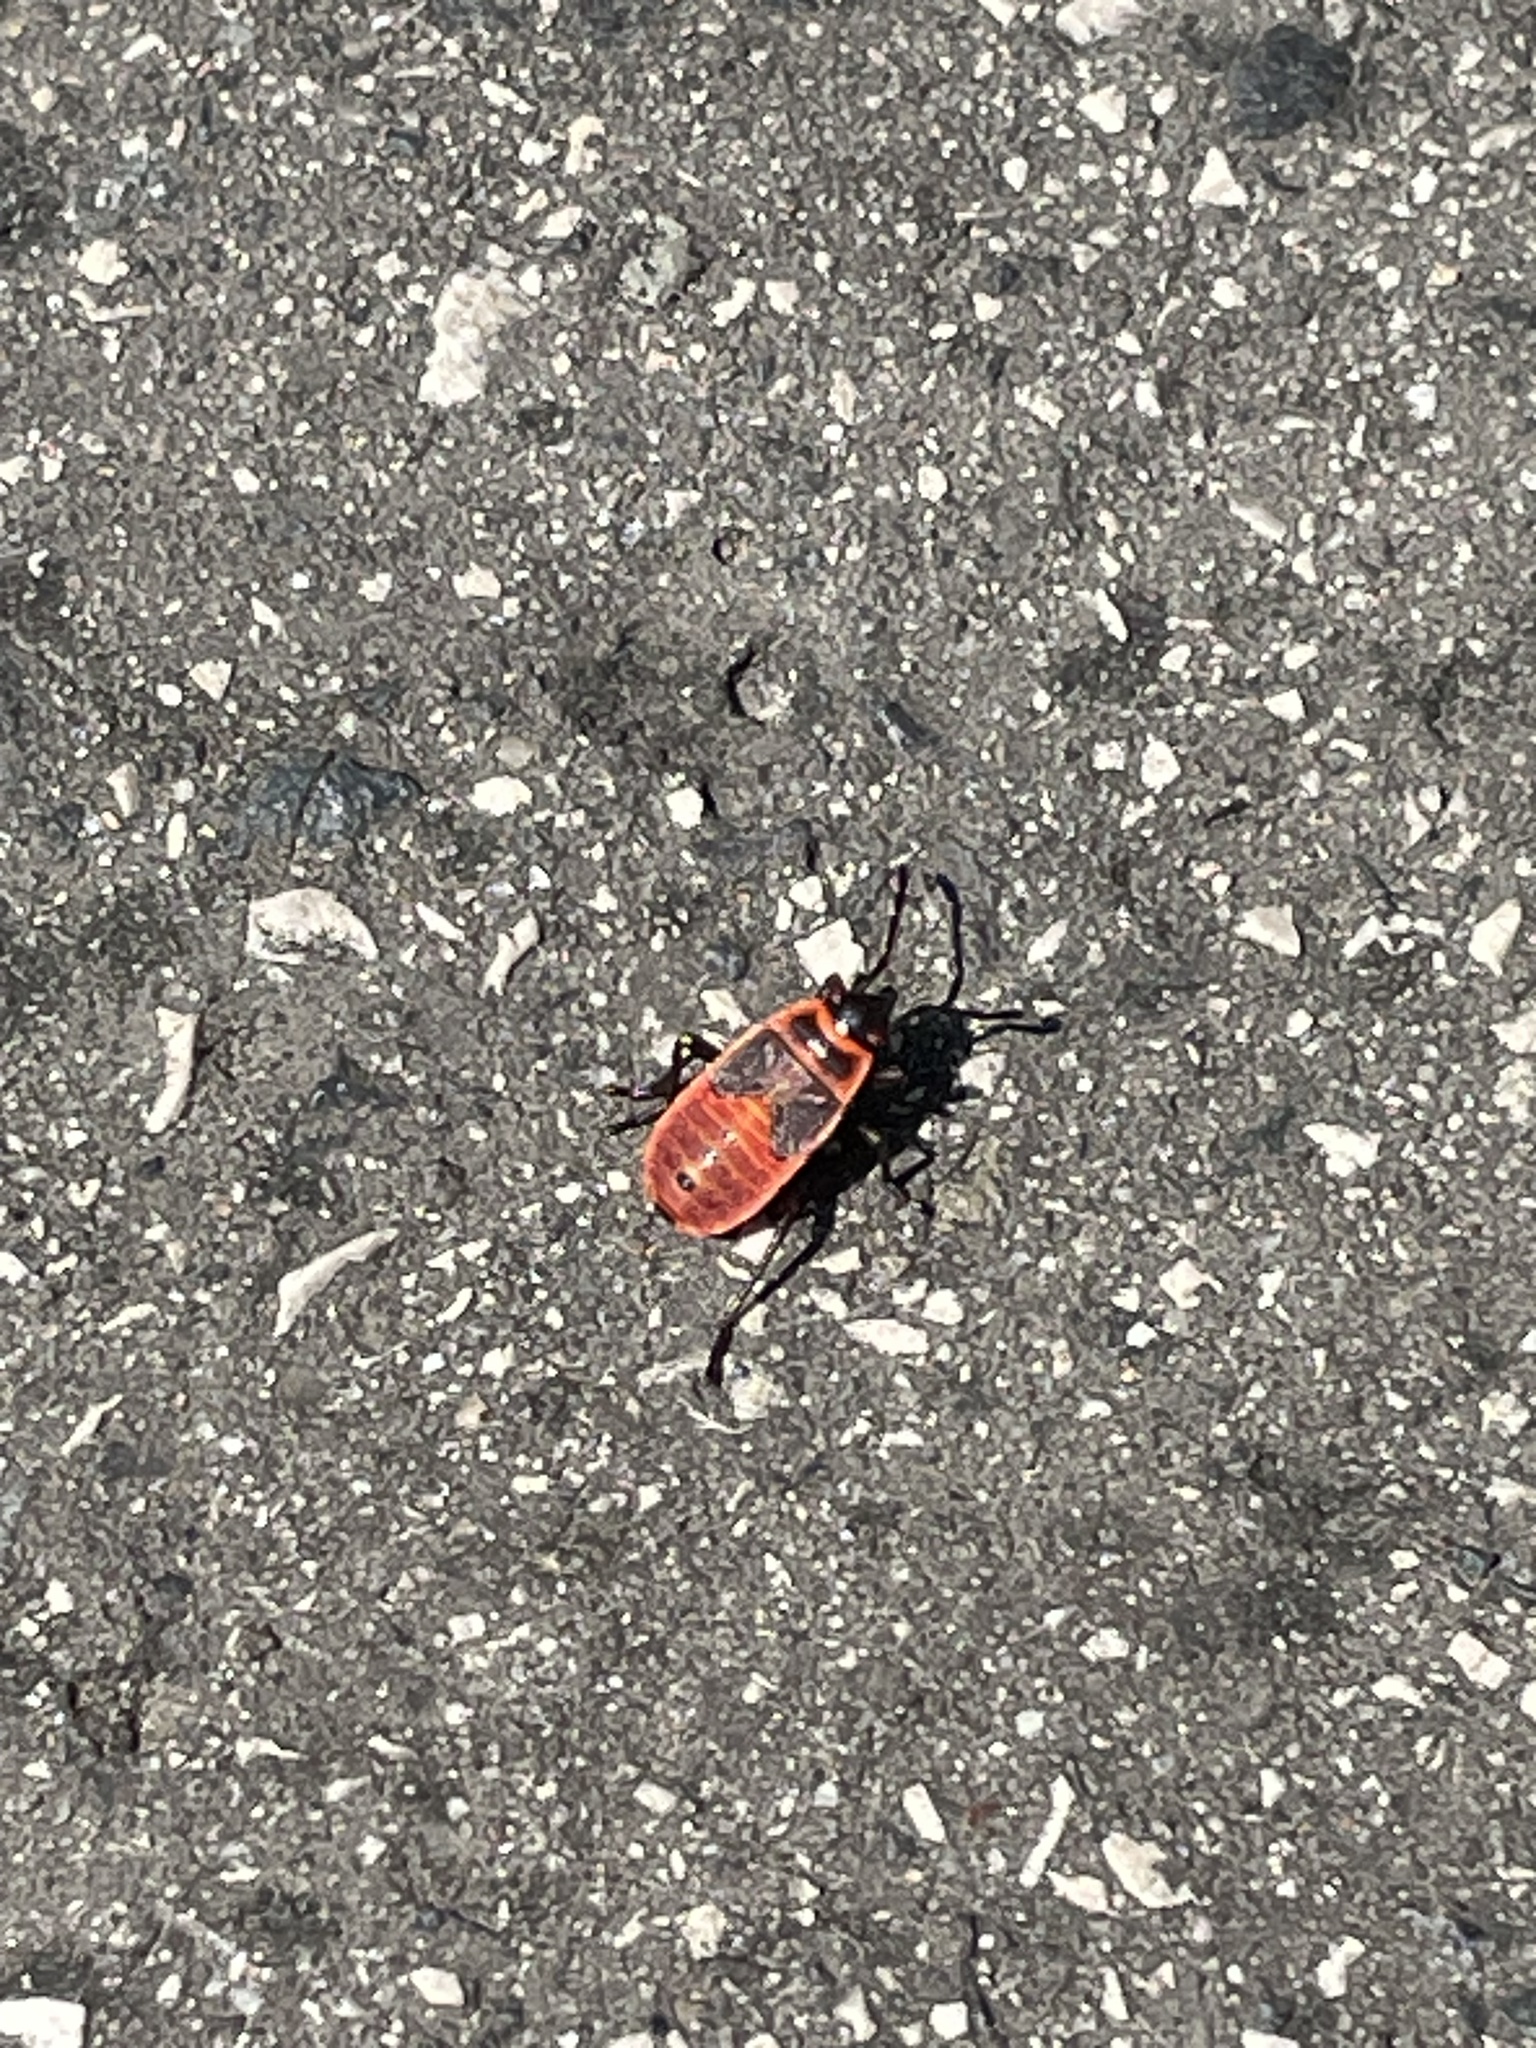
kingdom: Animalia
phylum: Arthropoda
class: Insecta
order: Hemiptera
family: Pyrrhocoridae
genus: Pyrrhocoris
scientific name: Pyrrhocoris apterus
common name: Firebug
